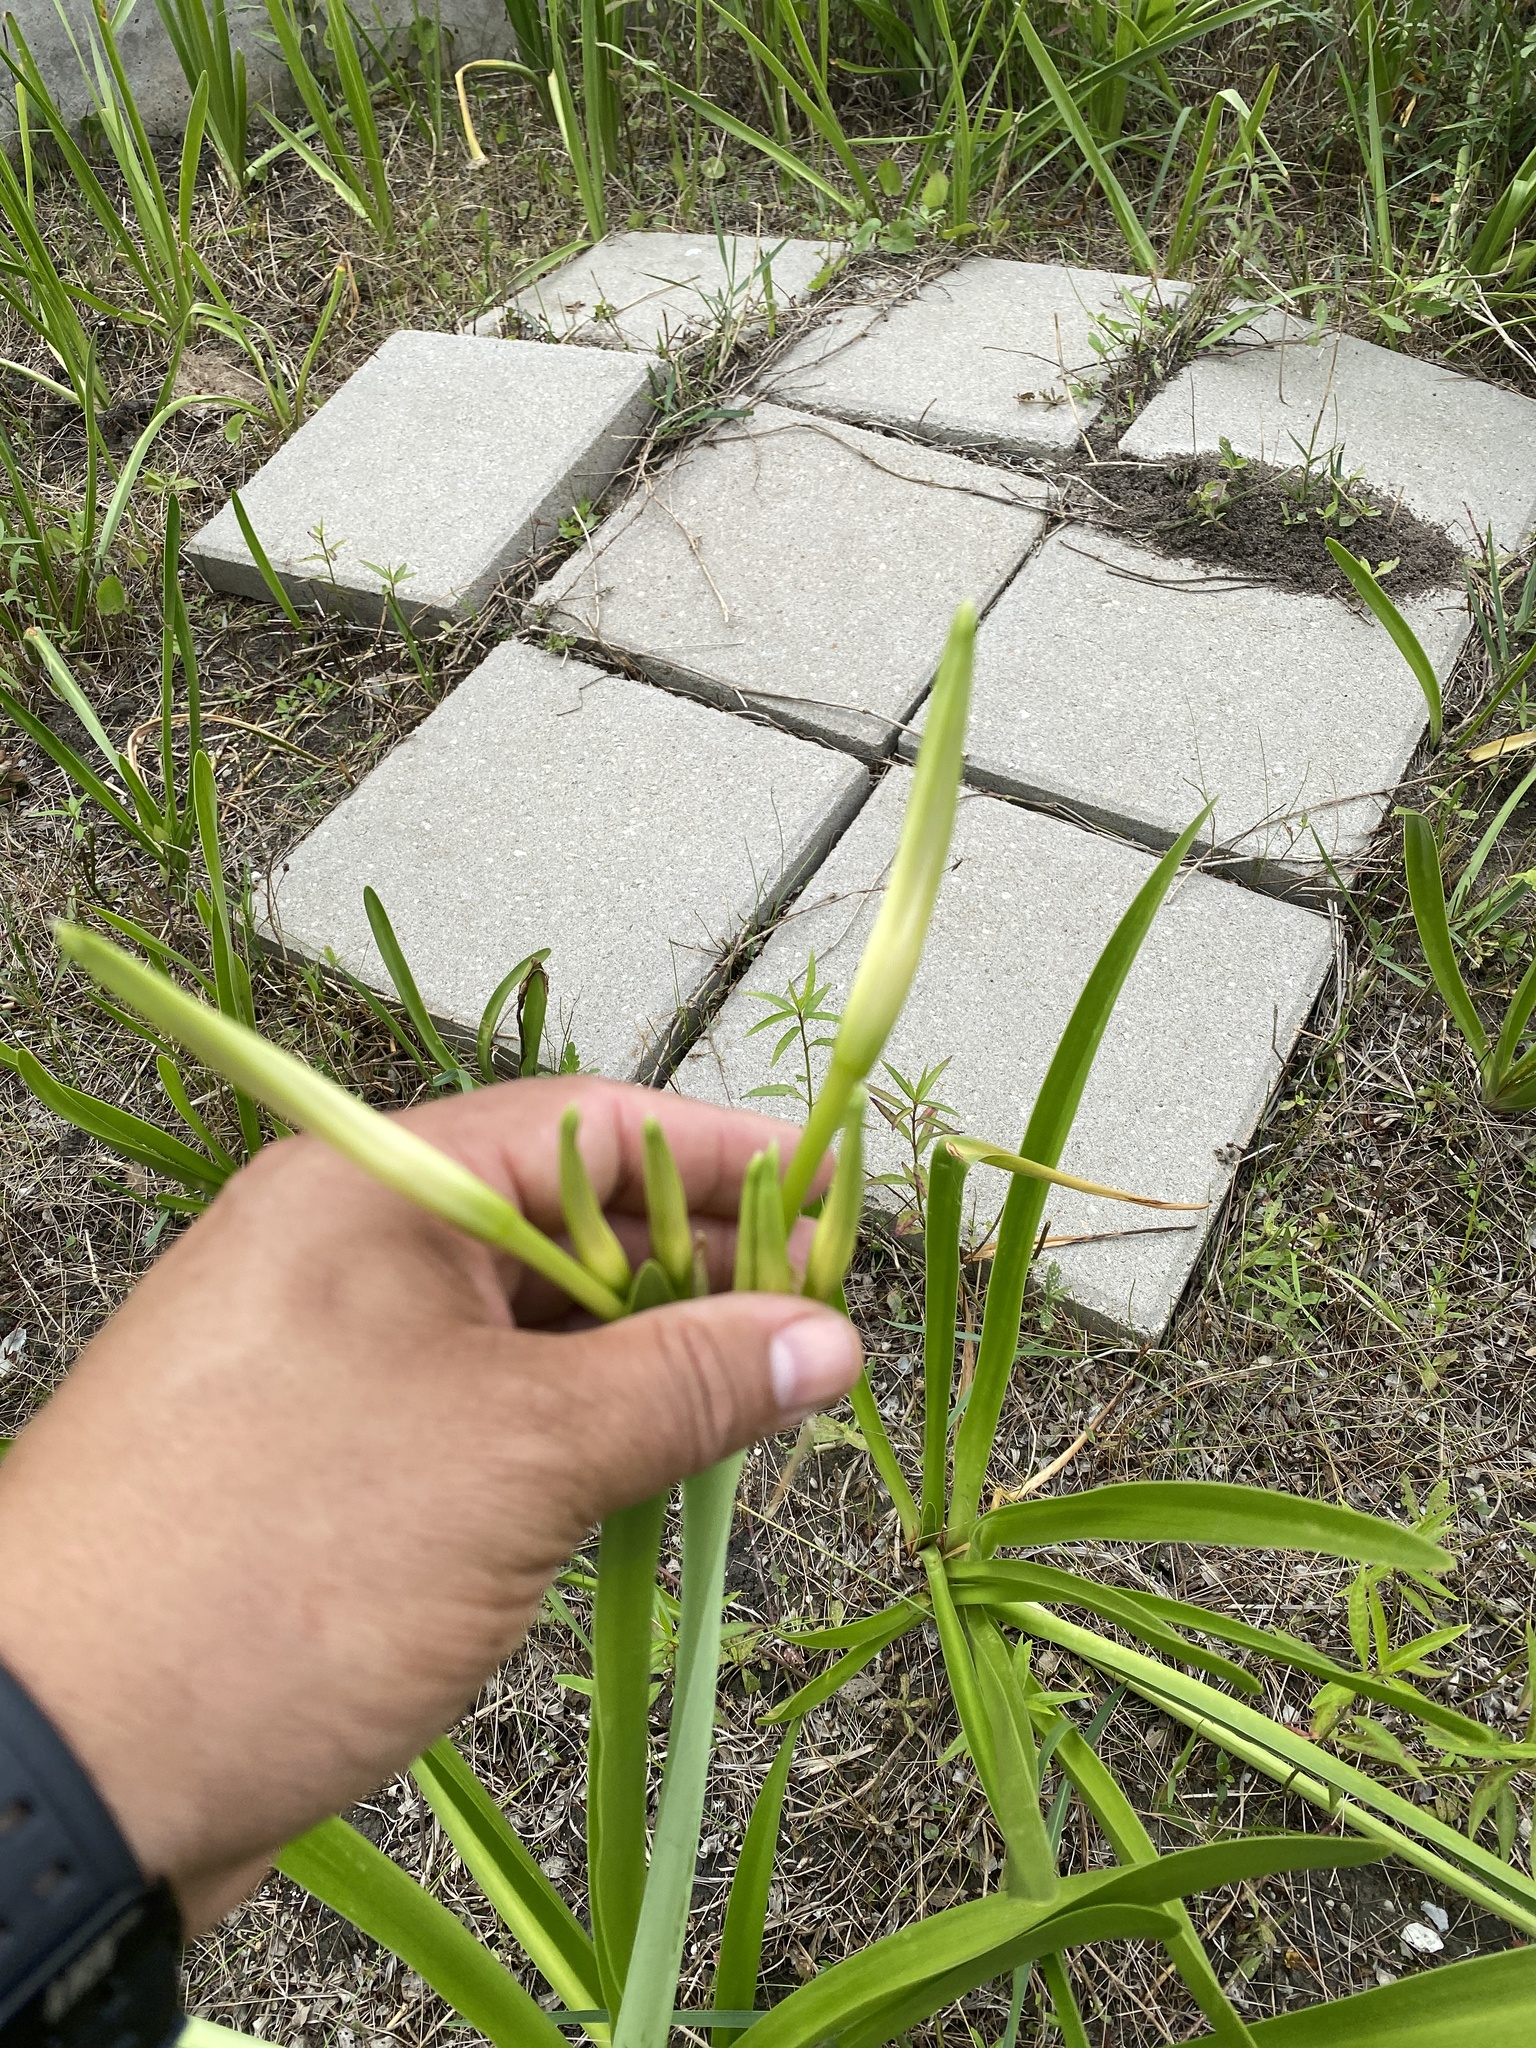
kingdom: Plantae
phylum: Tracheophyta
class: Liliopsida
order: Asparagales
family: Amaryllidaceae
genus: Hymenocallis
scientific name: Hymenocallis liriosme
